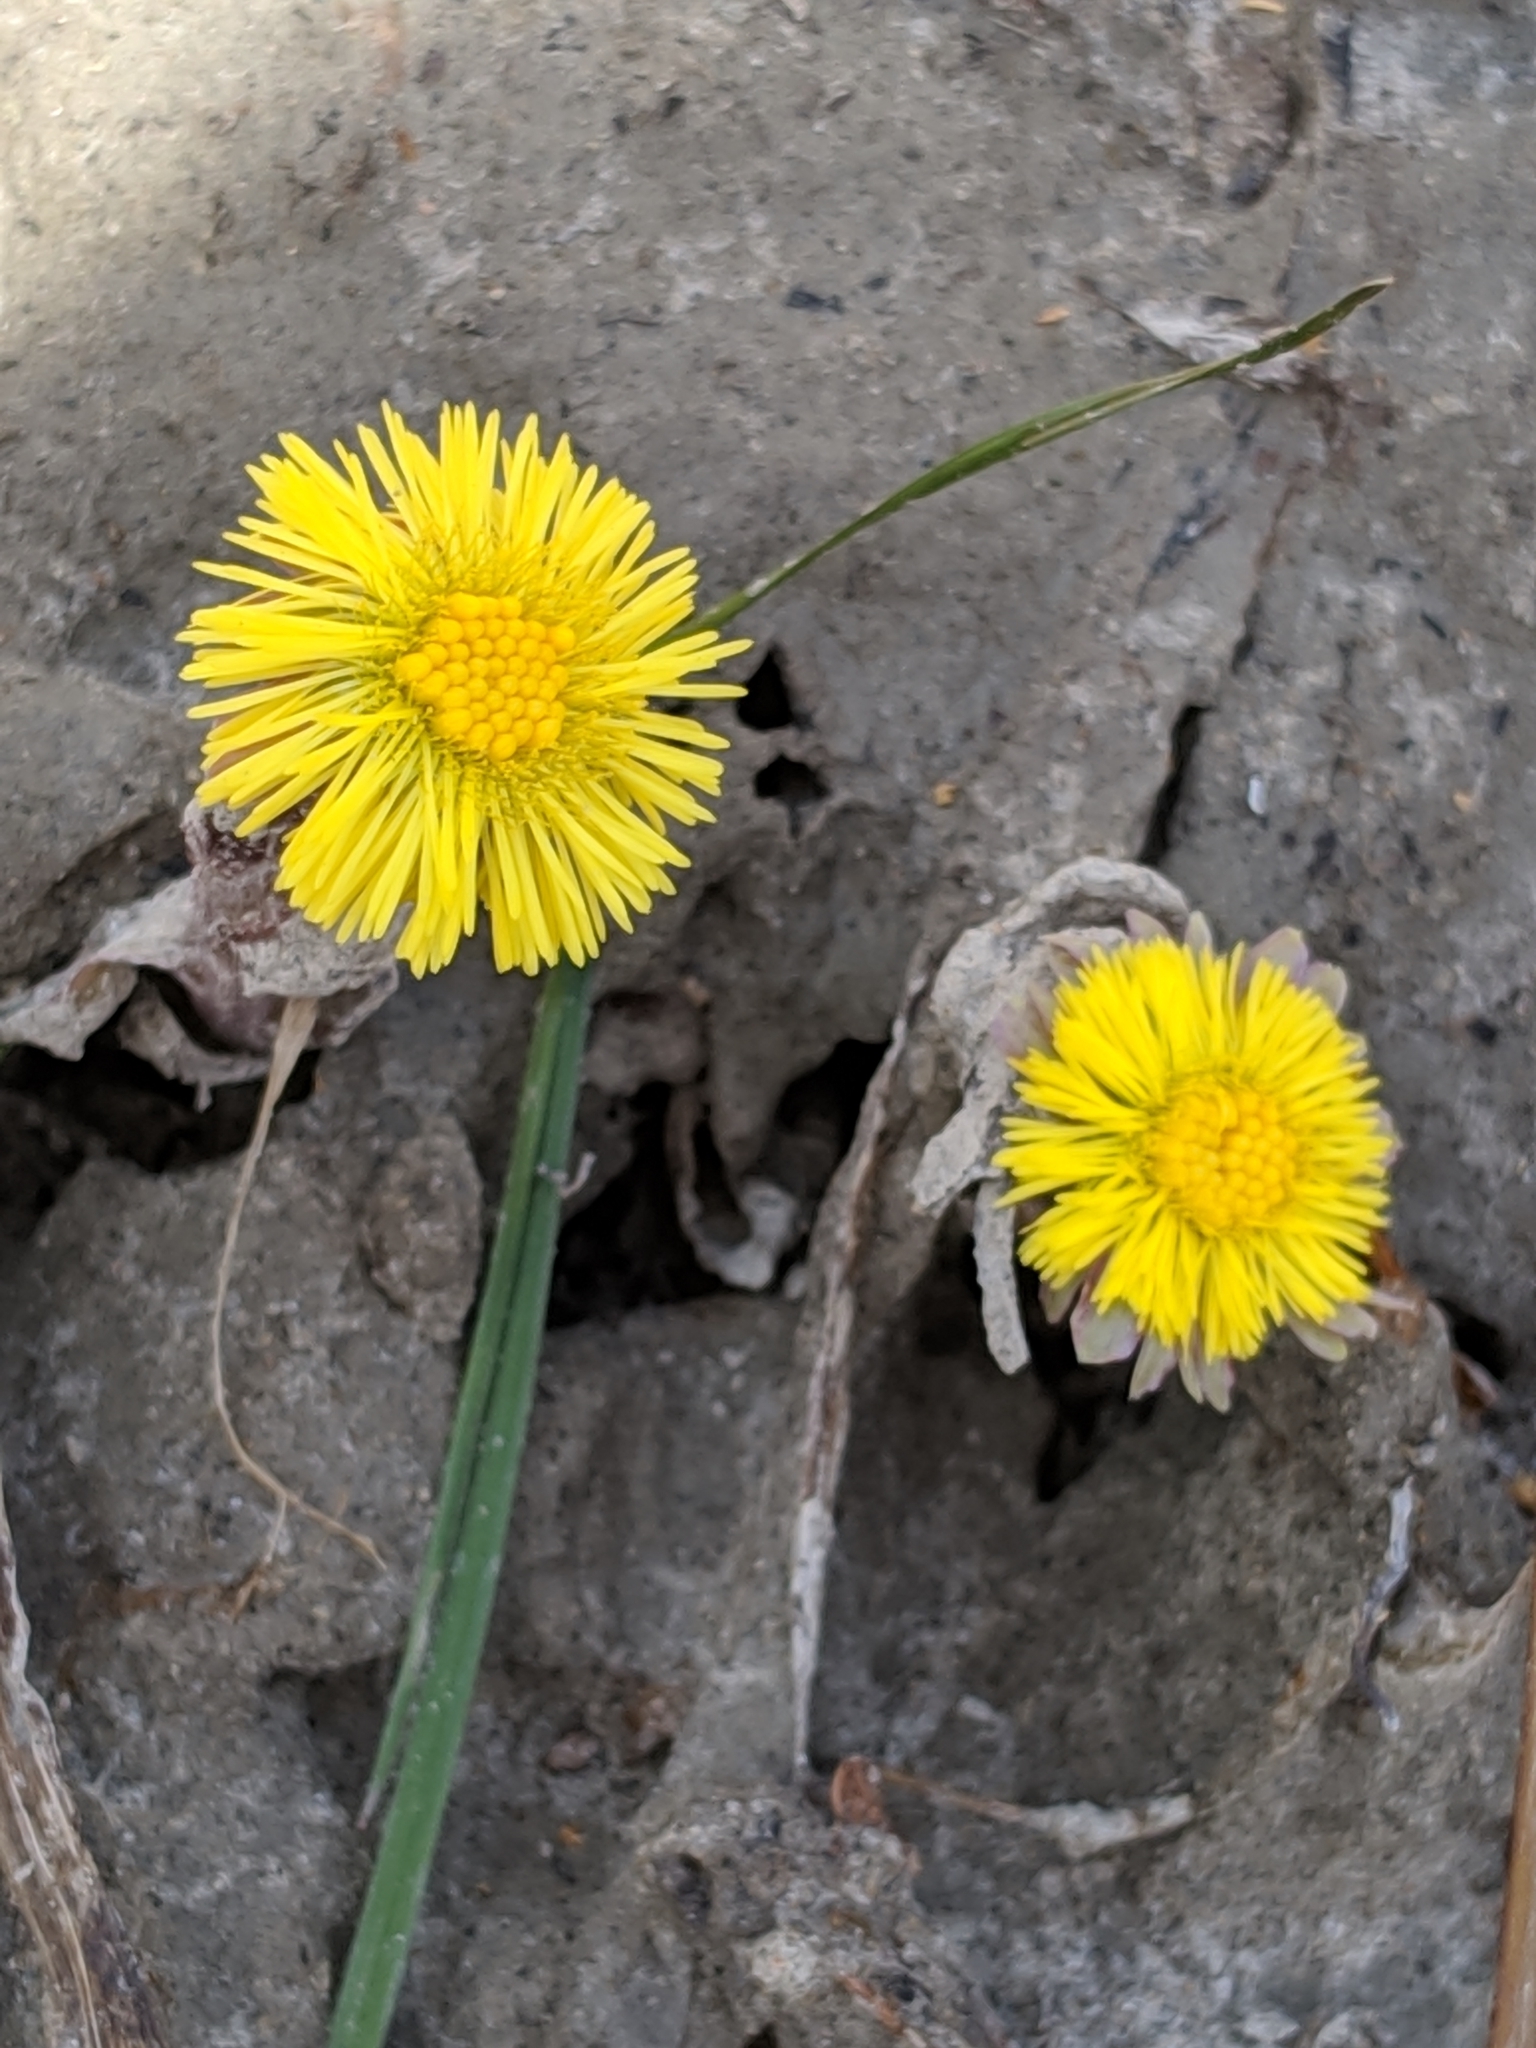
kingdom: Plantae
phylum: Tracheophyta
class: Magnoliopsida
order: Asterales
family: Asteraceae
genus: Tussilago
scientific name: Tussilago farfara
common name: Coltsfoot
